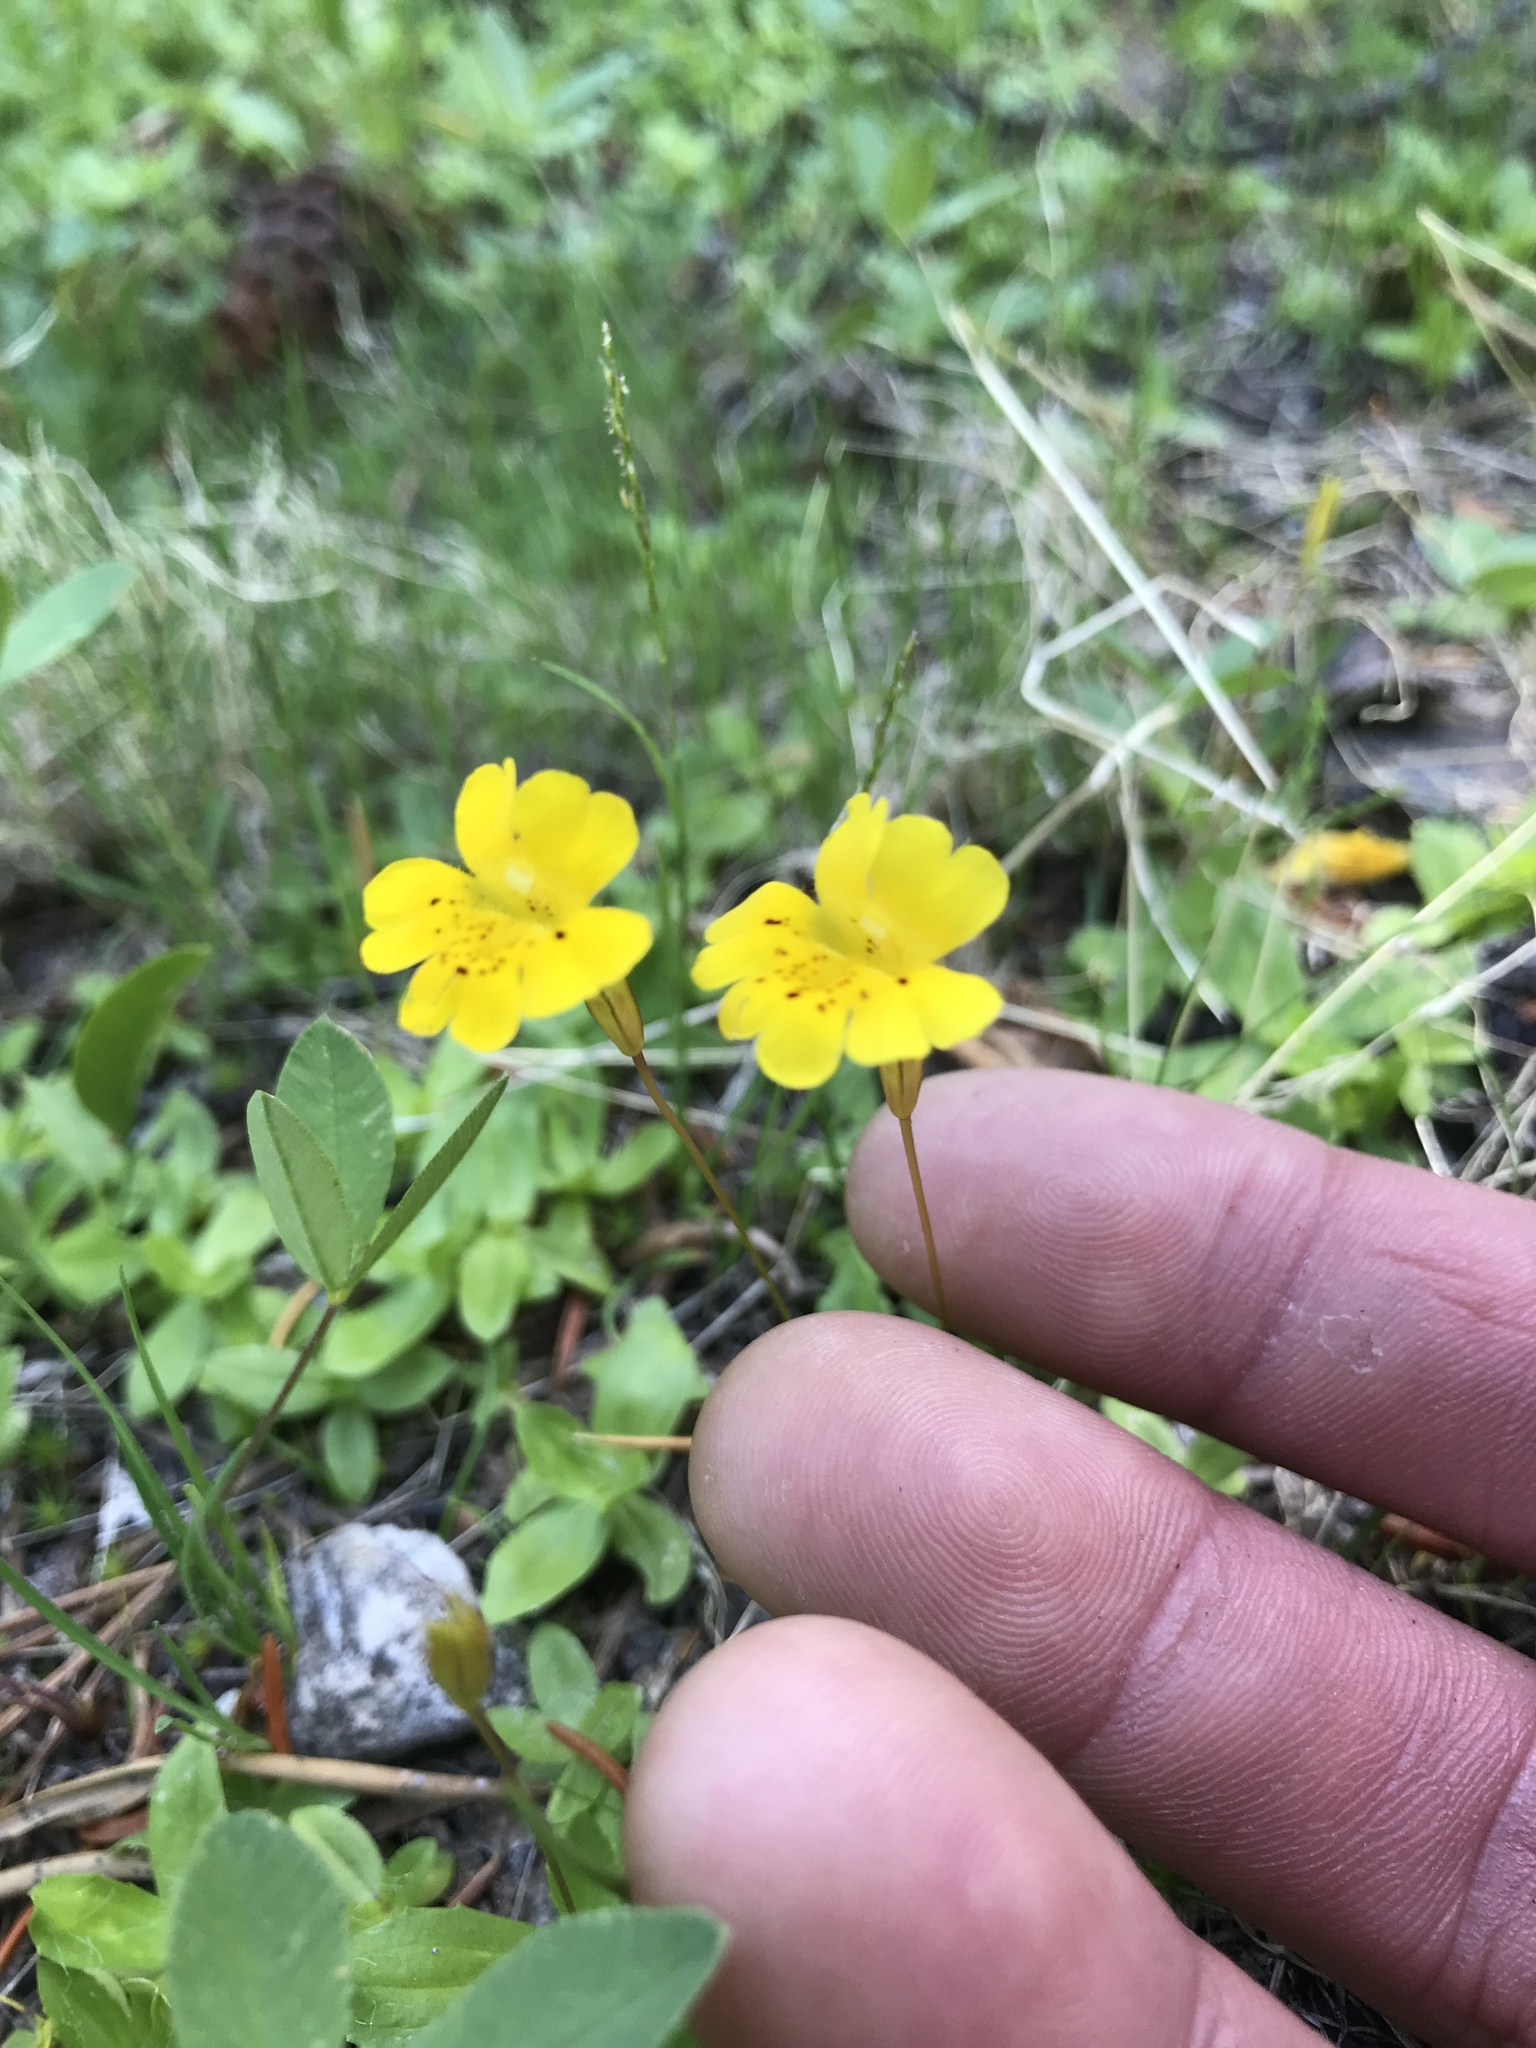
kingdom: Plantae
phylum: Tracheophyta
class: Magnoliopsida
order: Lamiales
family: Phrymaceae
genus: Erythranthe
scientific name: Erythranthe primuloides
